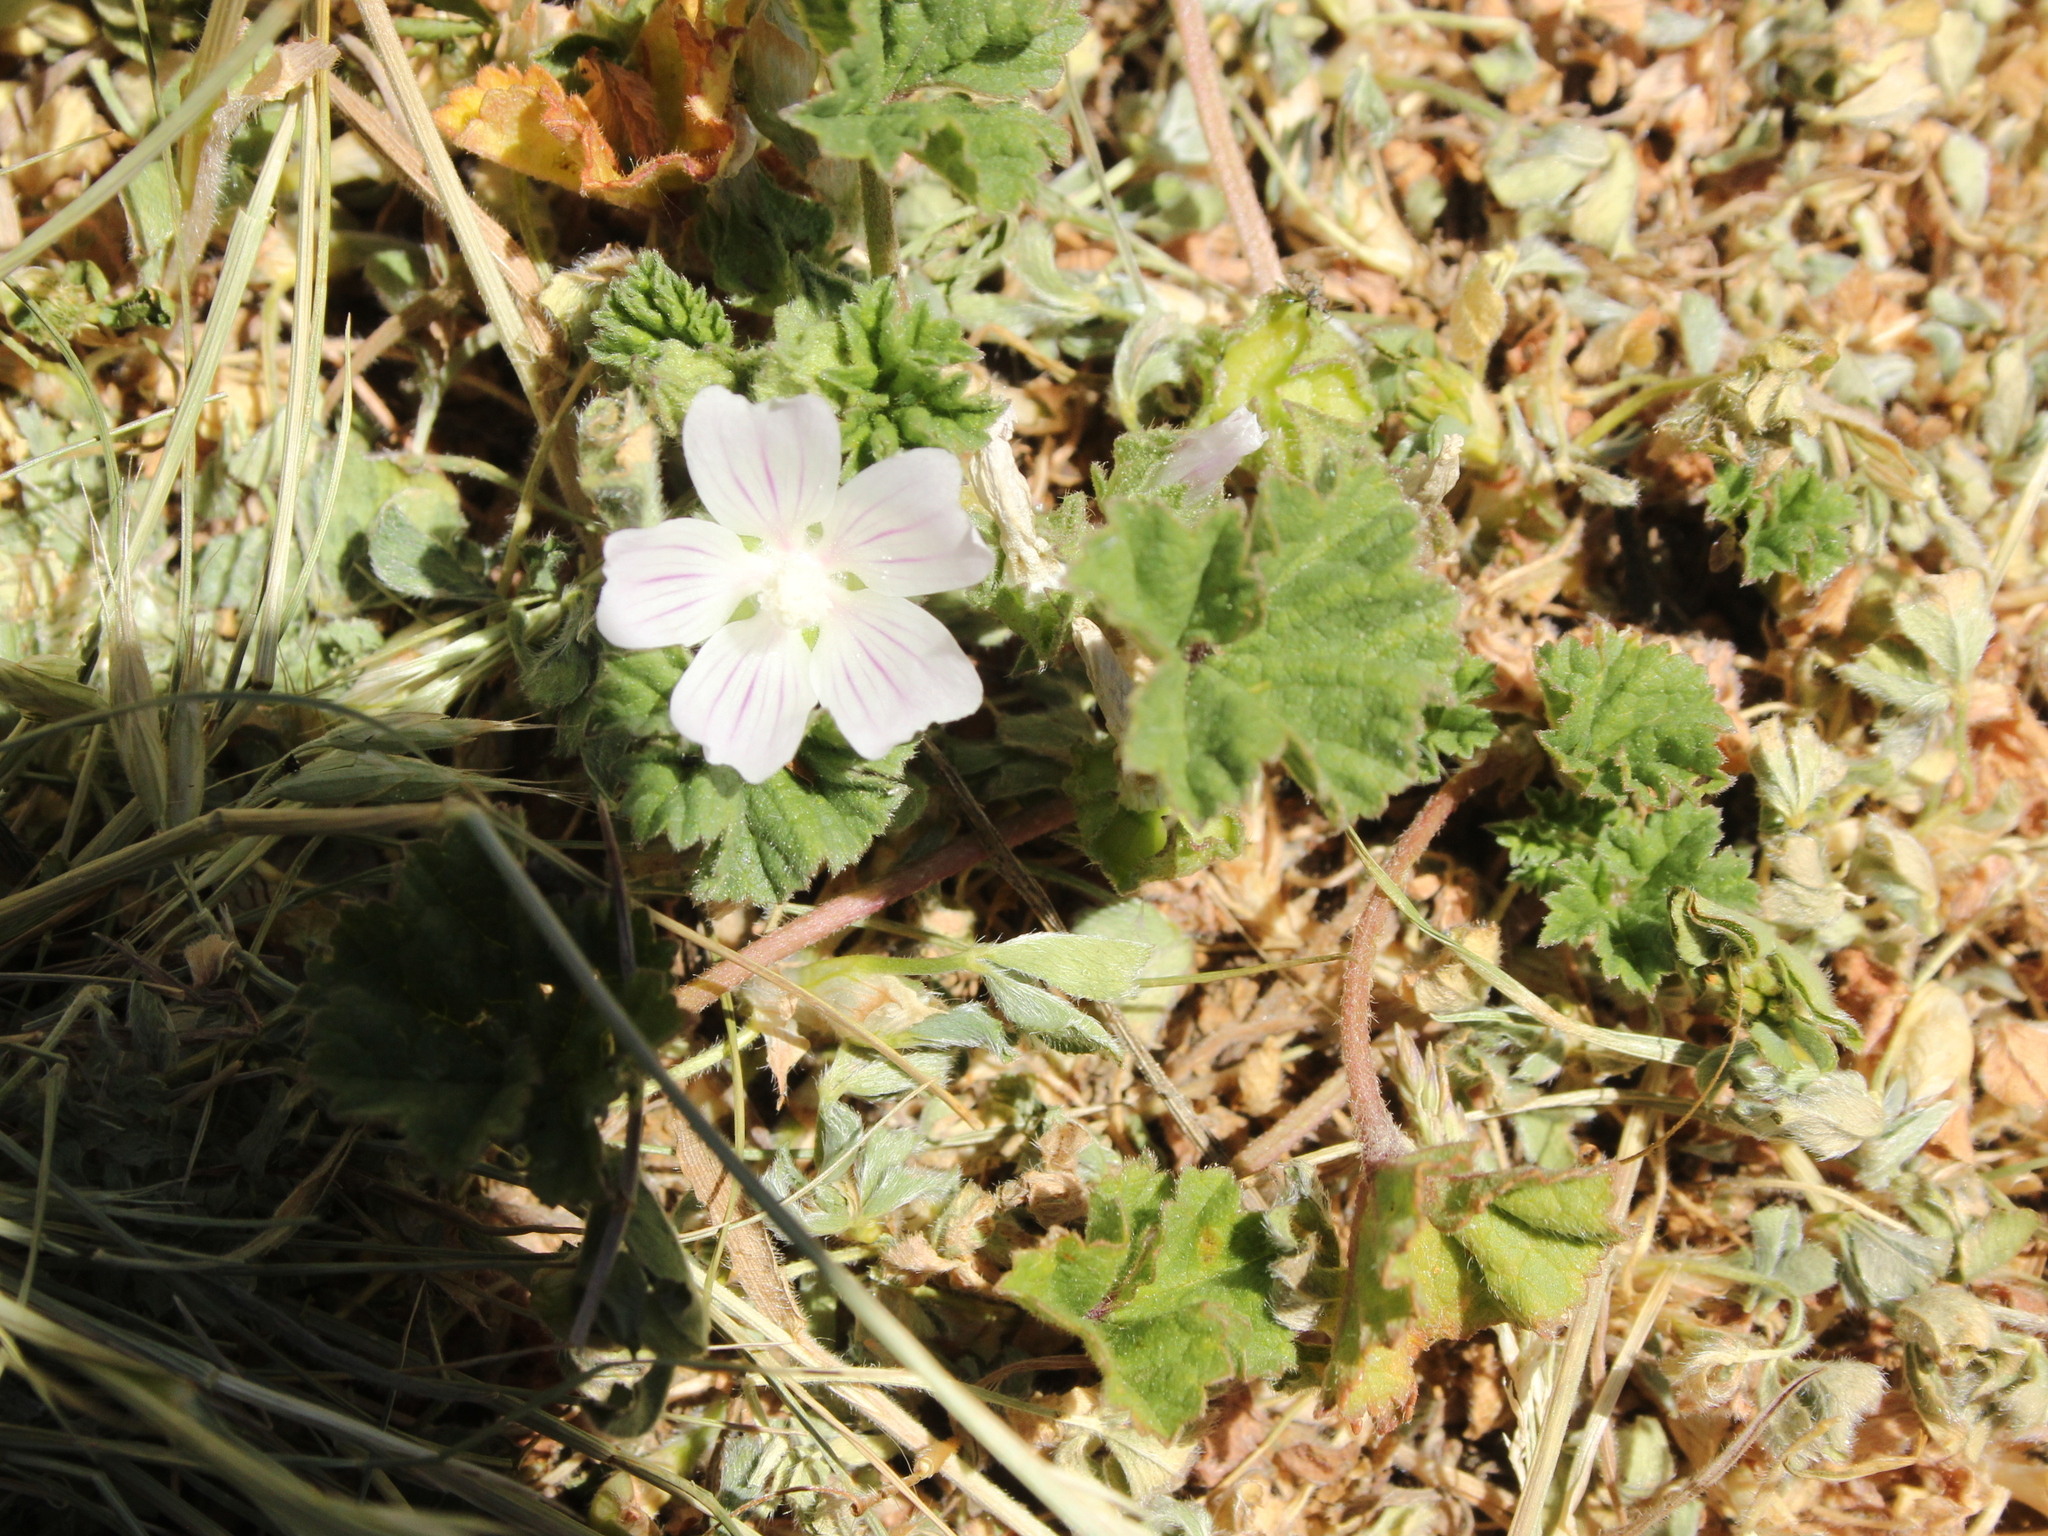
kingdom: Plantae
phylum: Tracheophyta
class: Magnoliopsida
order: Malvales
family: Malvaceae
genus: Malva
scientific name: Malva neglecta
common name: Common mallow
